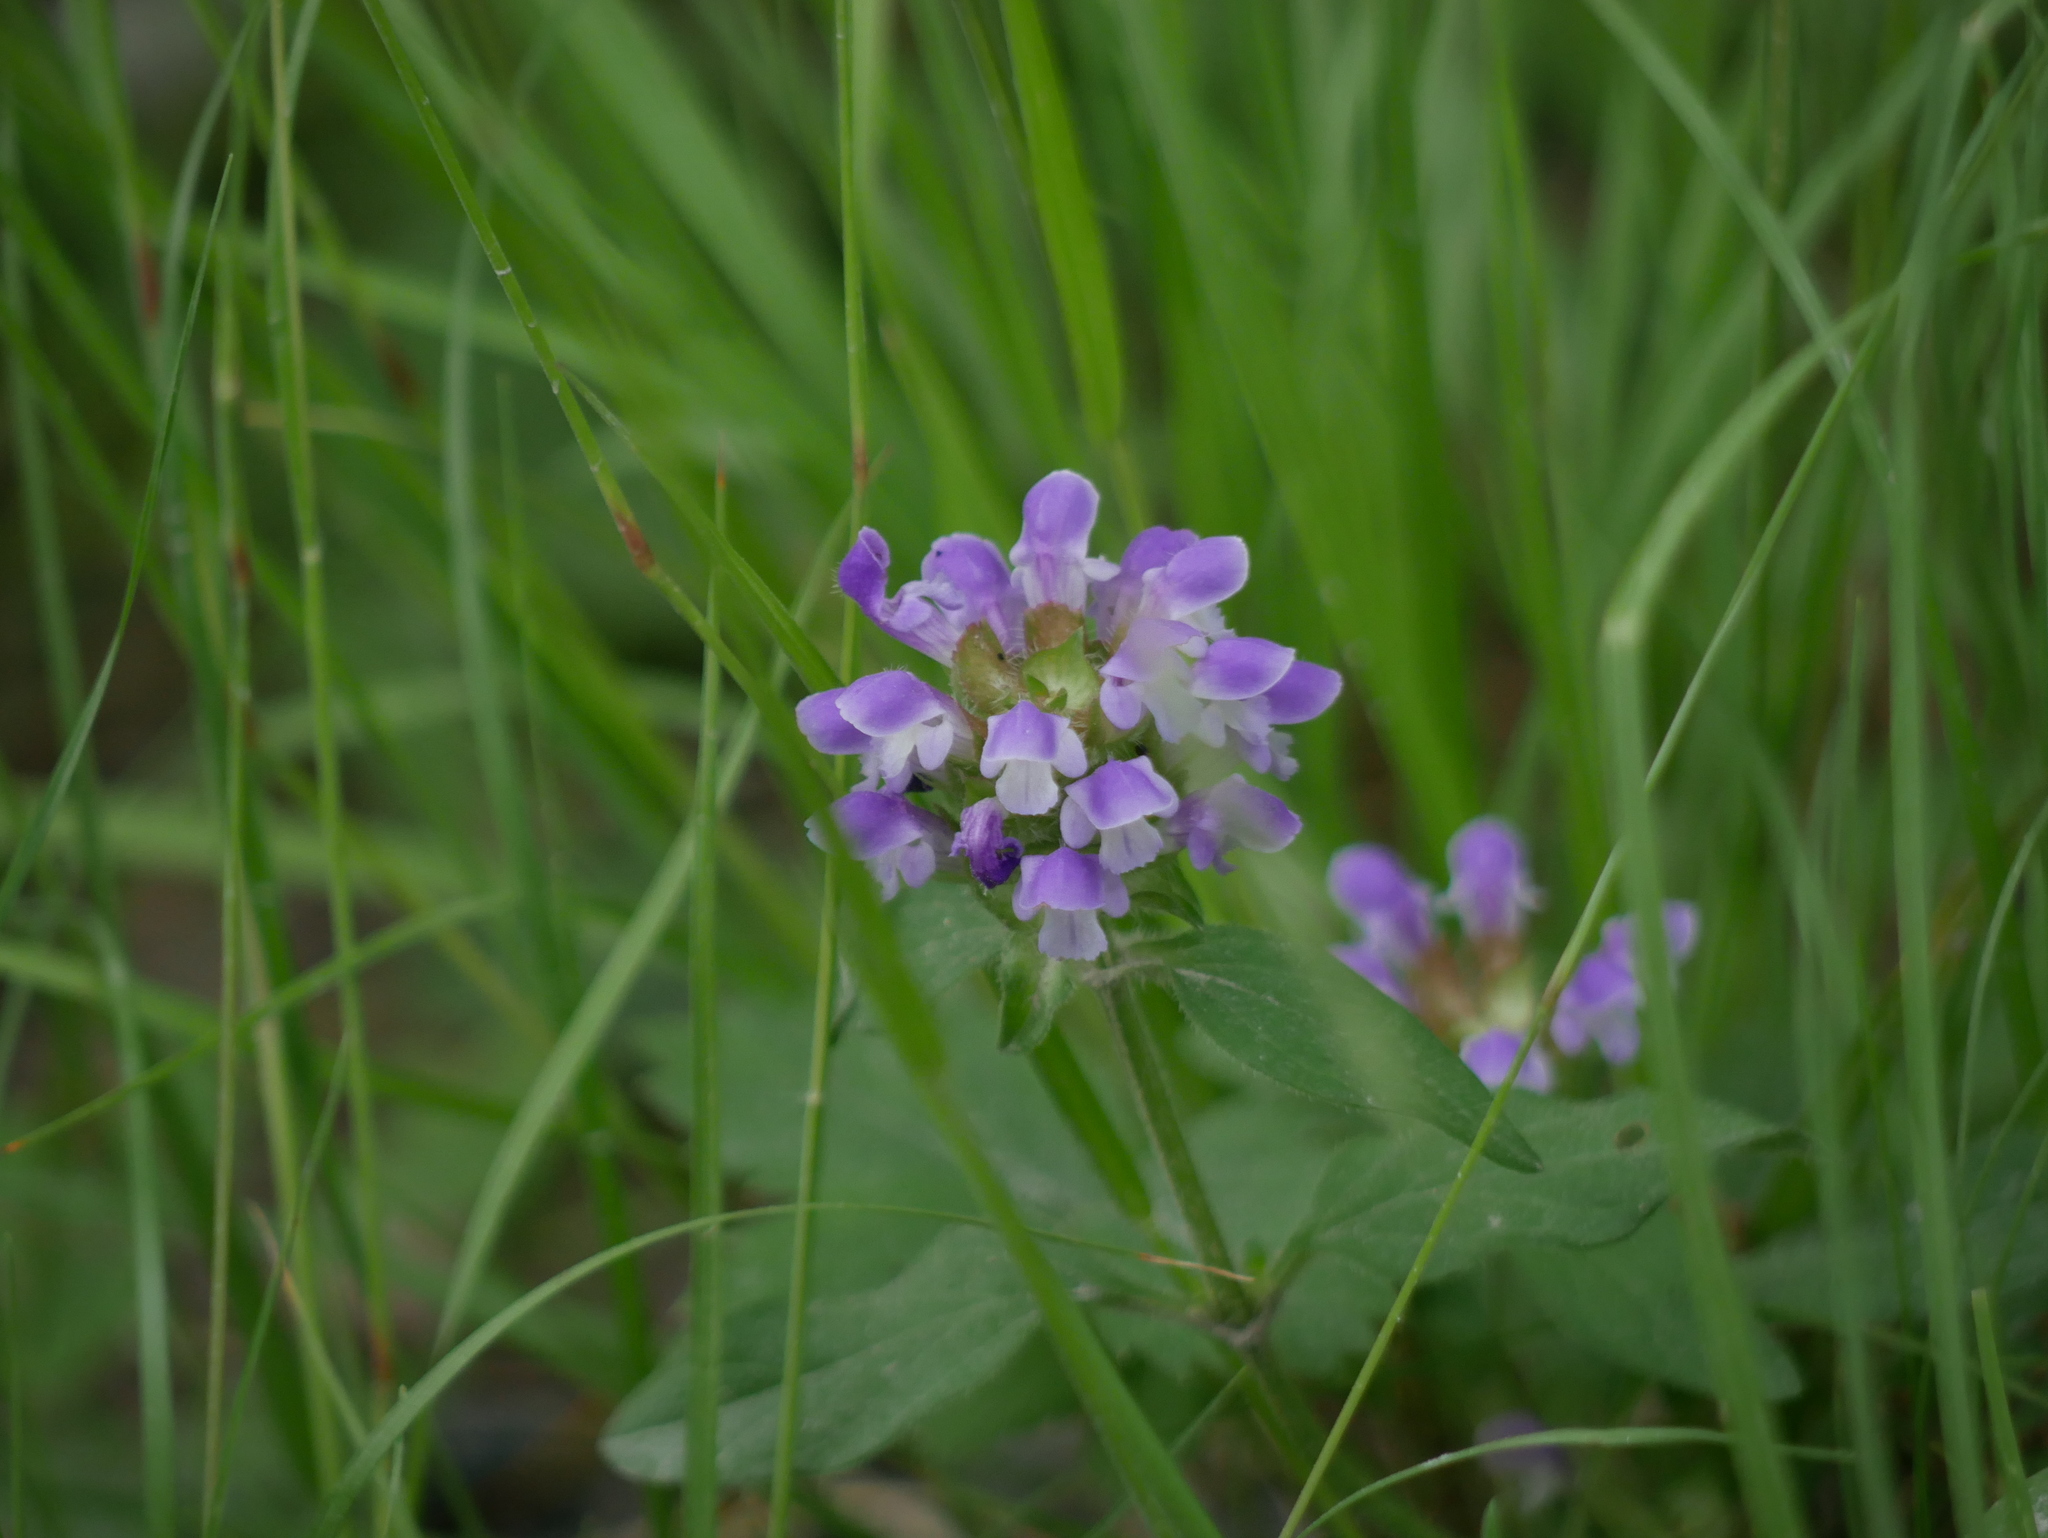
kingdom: Plantae
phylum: Tracheophyta
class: Magnoliopsida
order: Lamiales
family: Lamiaceae
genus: Prunella
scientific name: Prunella vulgaris
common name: Heal-all
